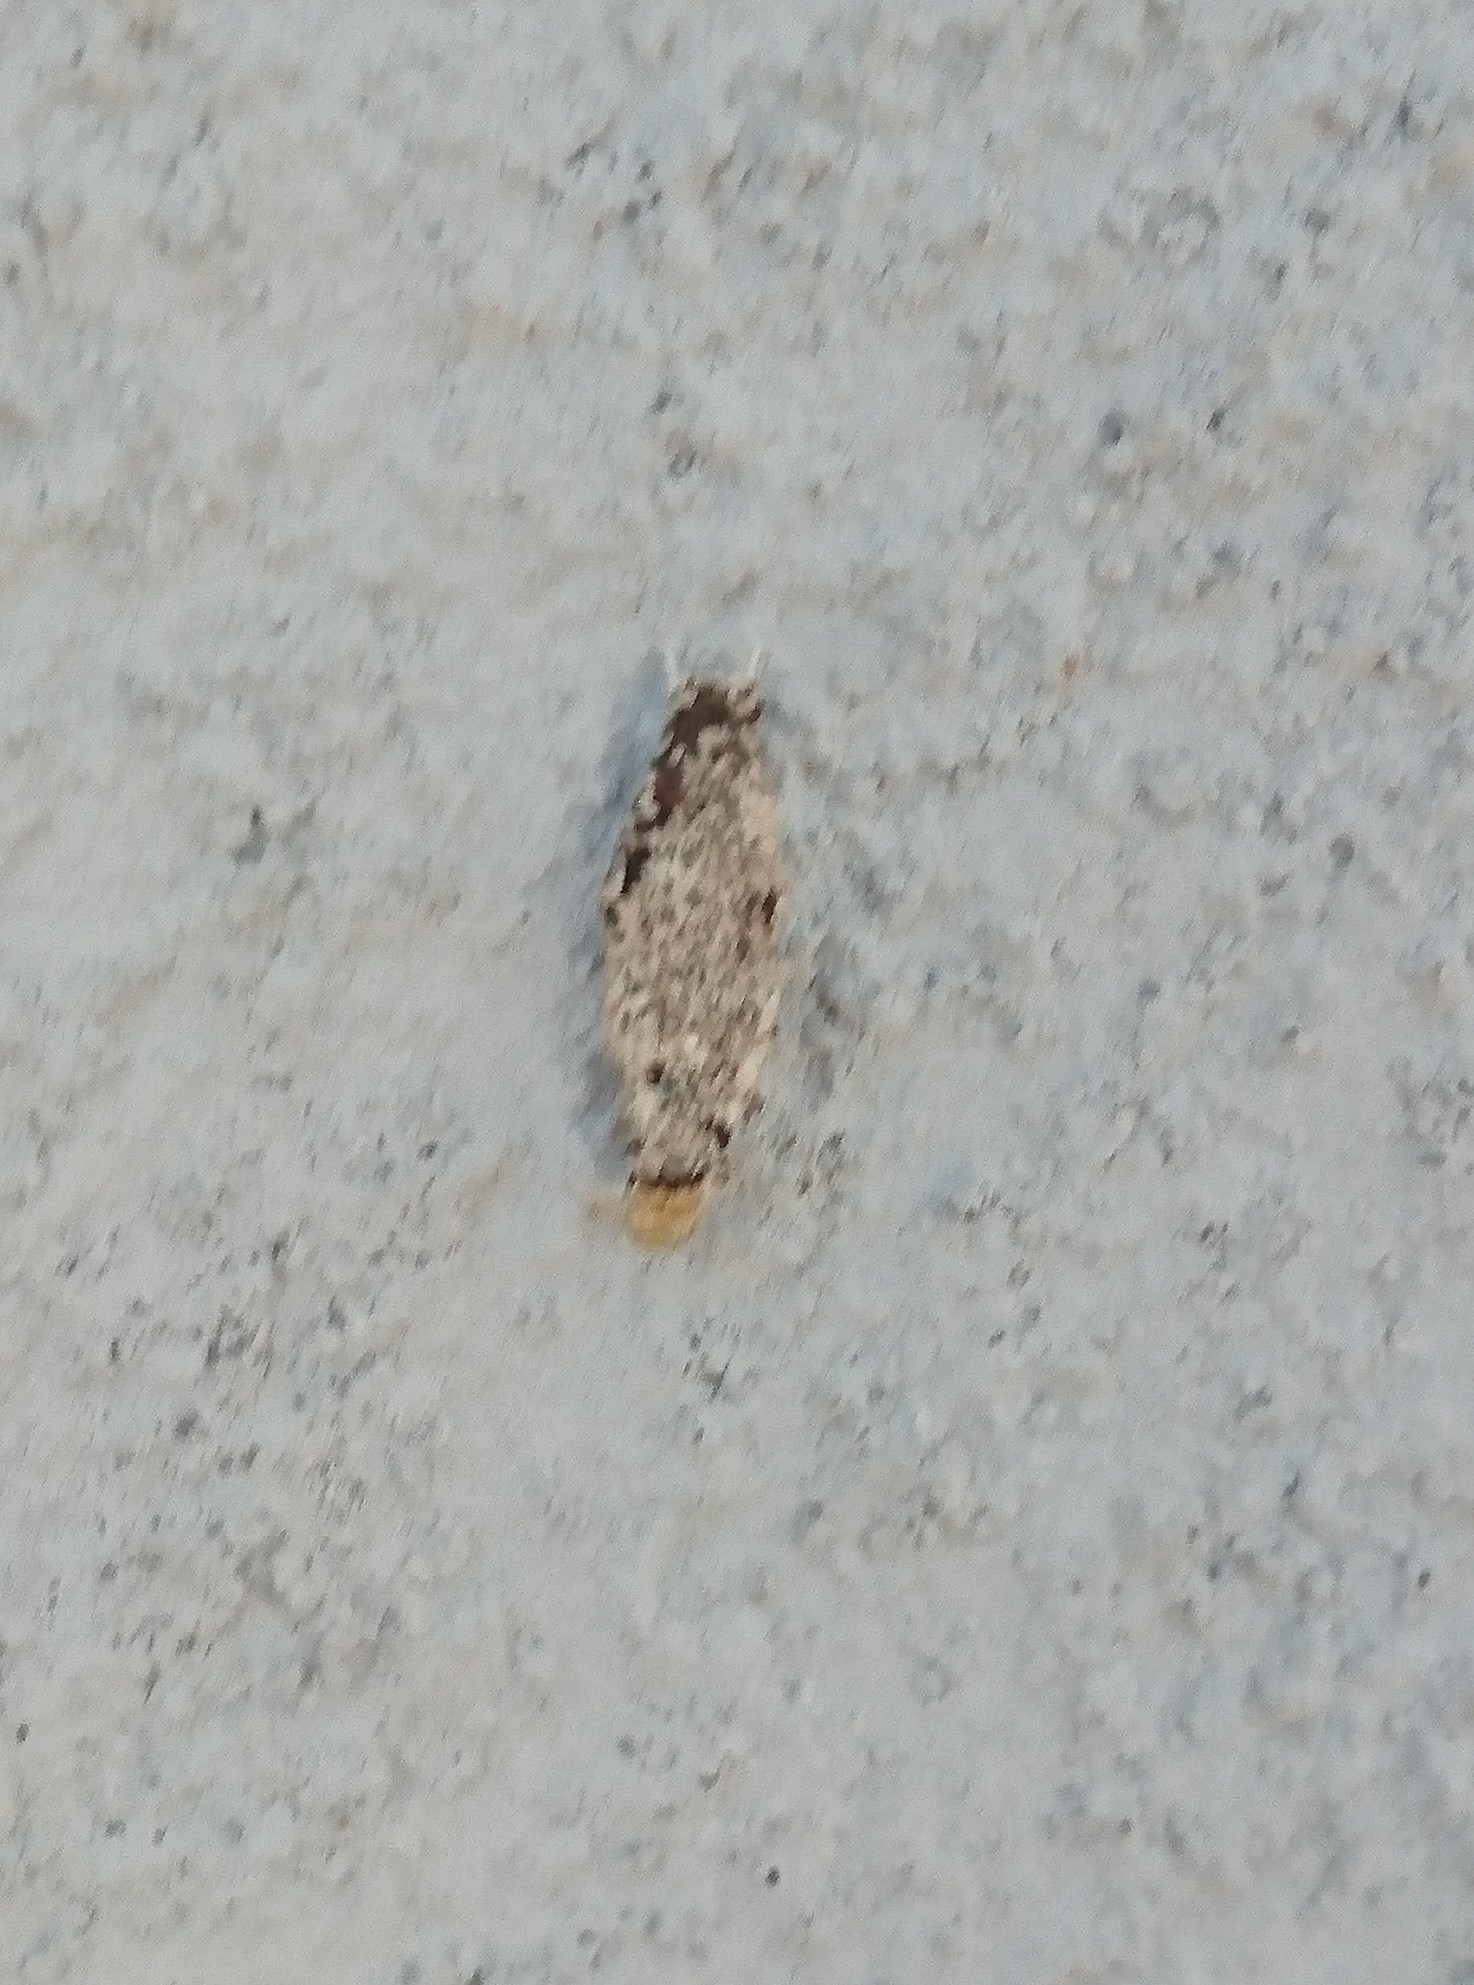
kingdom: Animalia
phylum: Arthropoda
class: Insecta
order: Lepidoptera
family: Tineidae
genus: Phereoeca
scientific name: Phereoeca uterella
